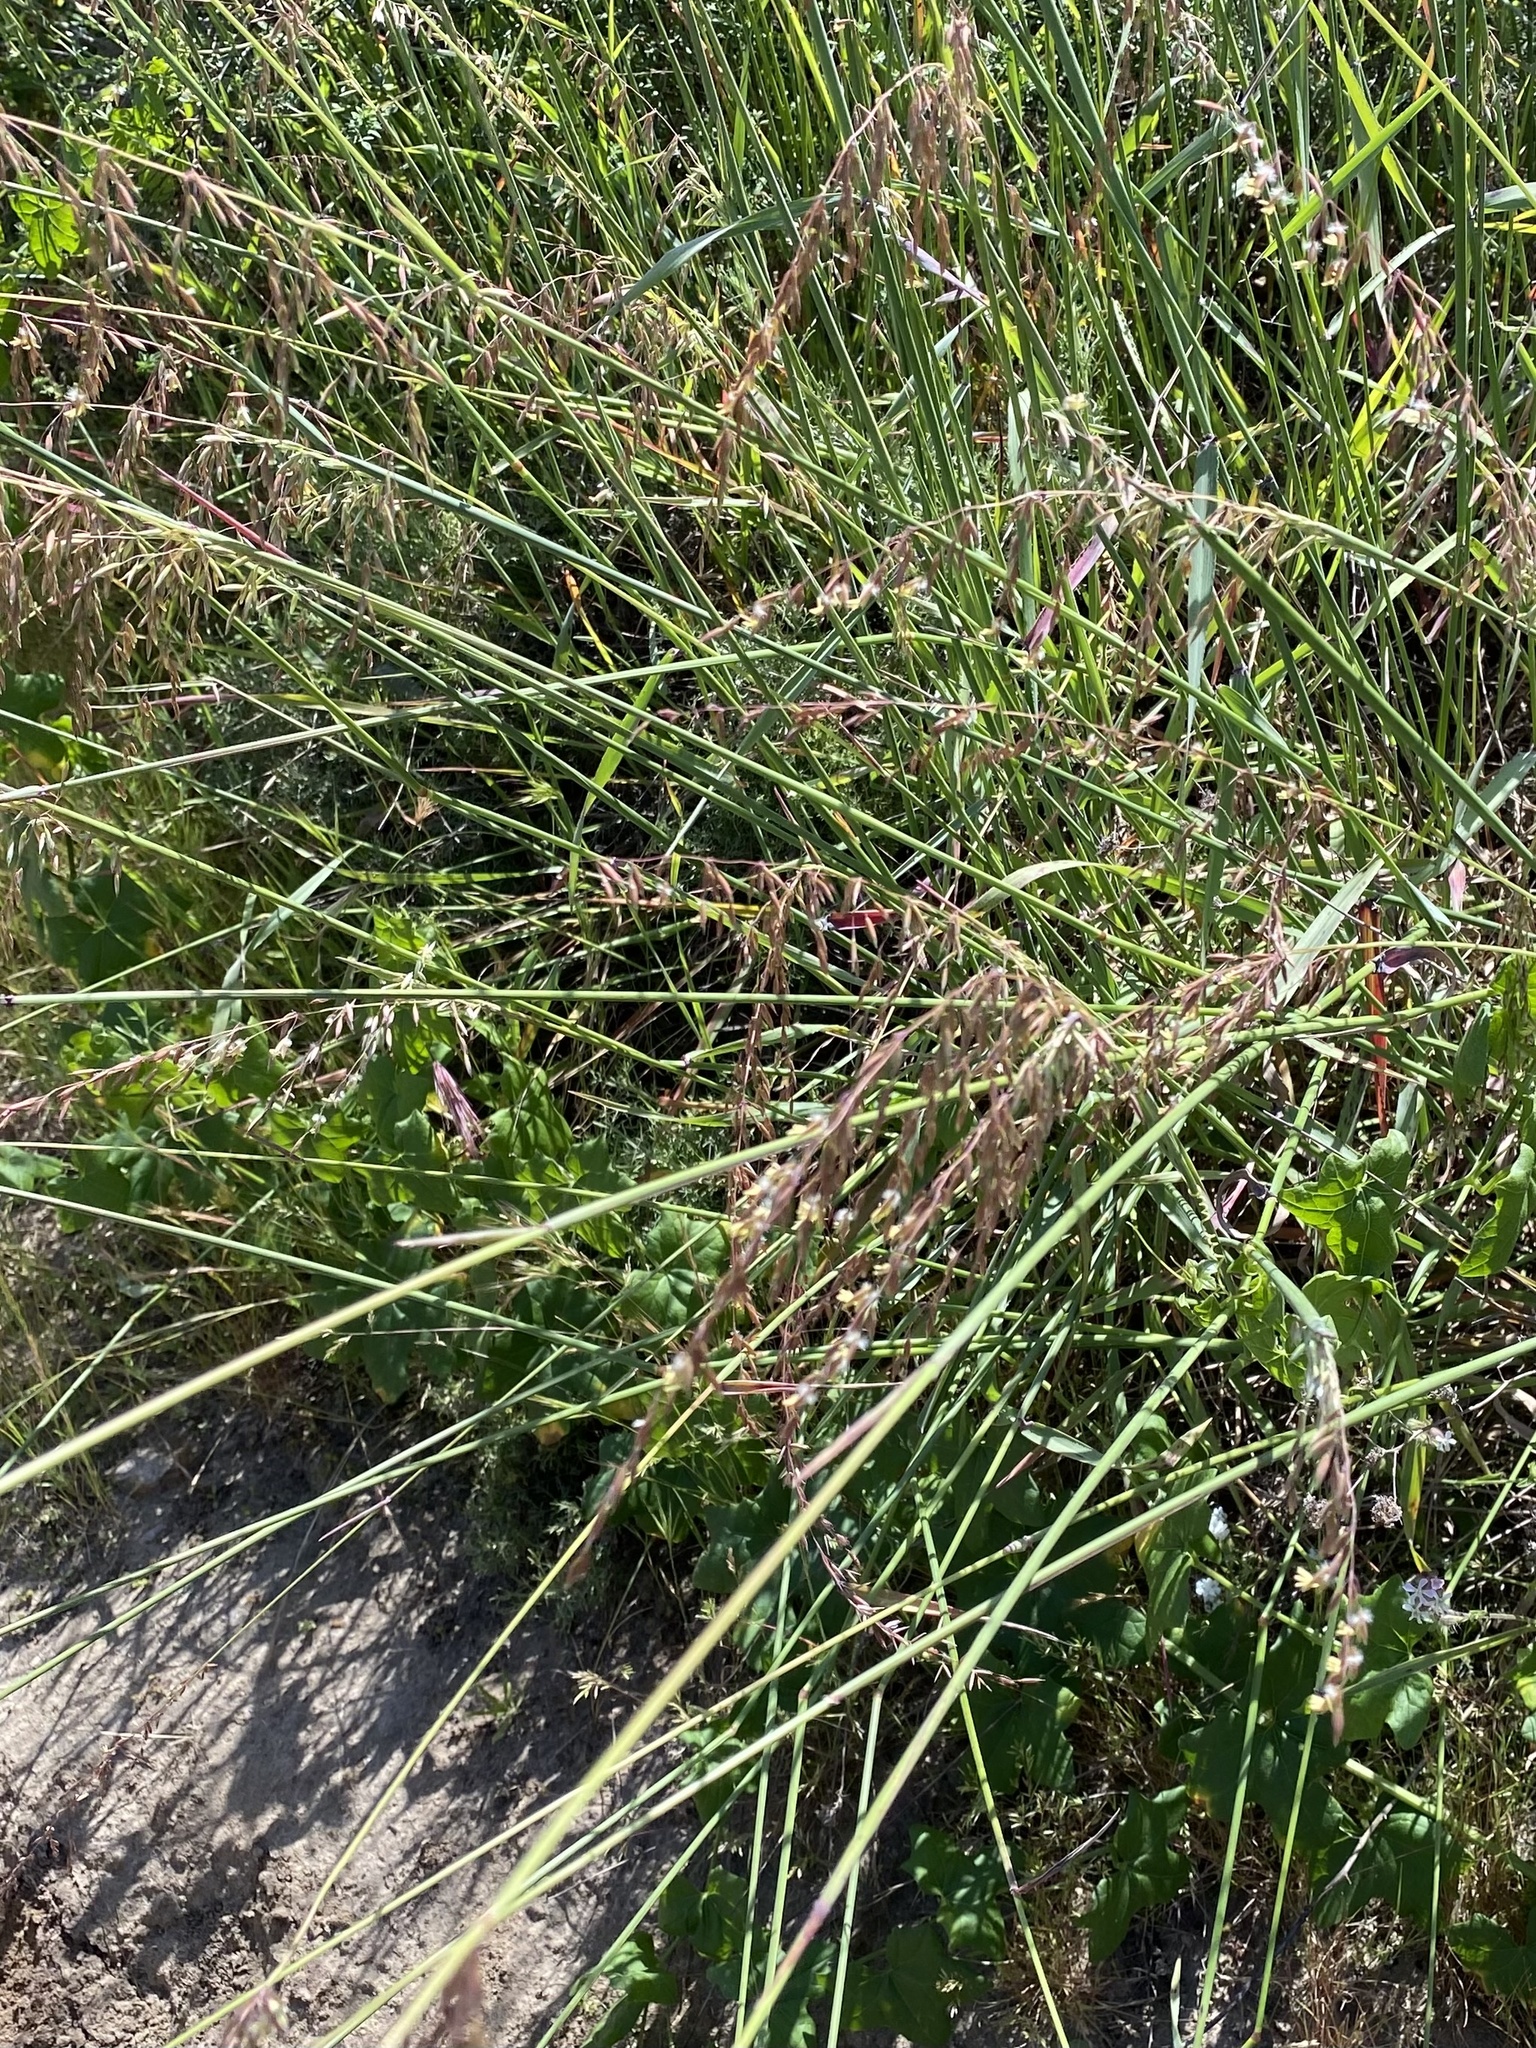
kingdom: Plantae
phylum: Tracheophyta
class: Liliopsida
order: Poales
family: Poaceae
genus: Ehrharta
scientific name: Ehrharta calycina
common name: Perennial veldtgrass
